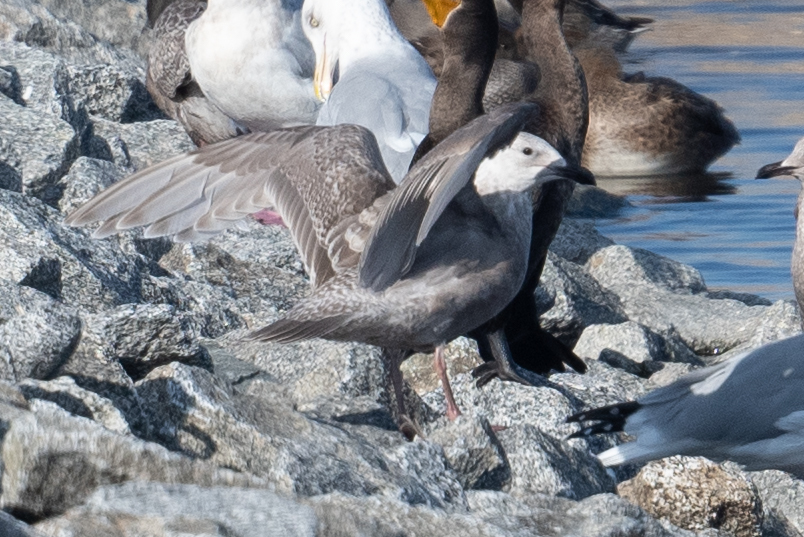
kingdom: Animalia
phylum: Chordata
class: Aves
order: Charadriiformes
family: Laridae
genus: Larus
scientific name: Larus glaucescens
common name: Glaucous-winged gull
